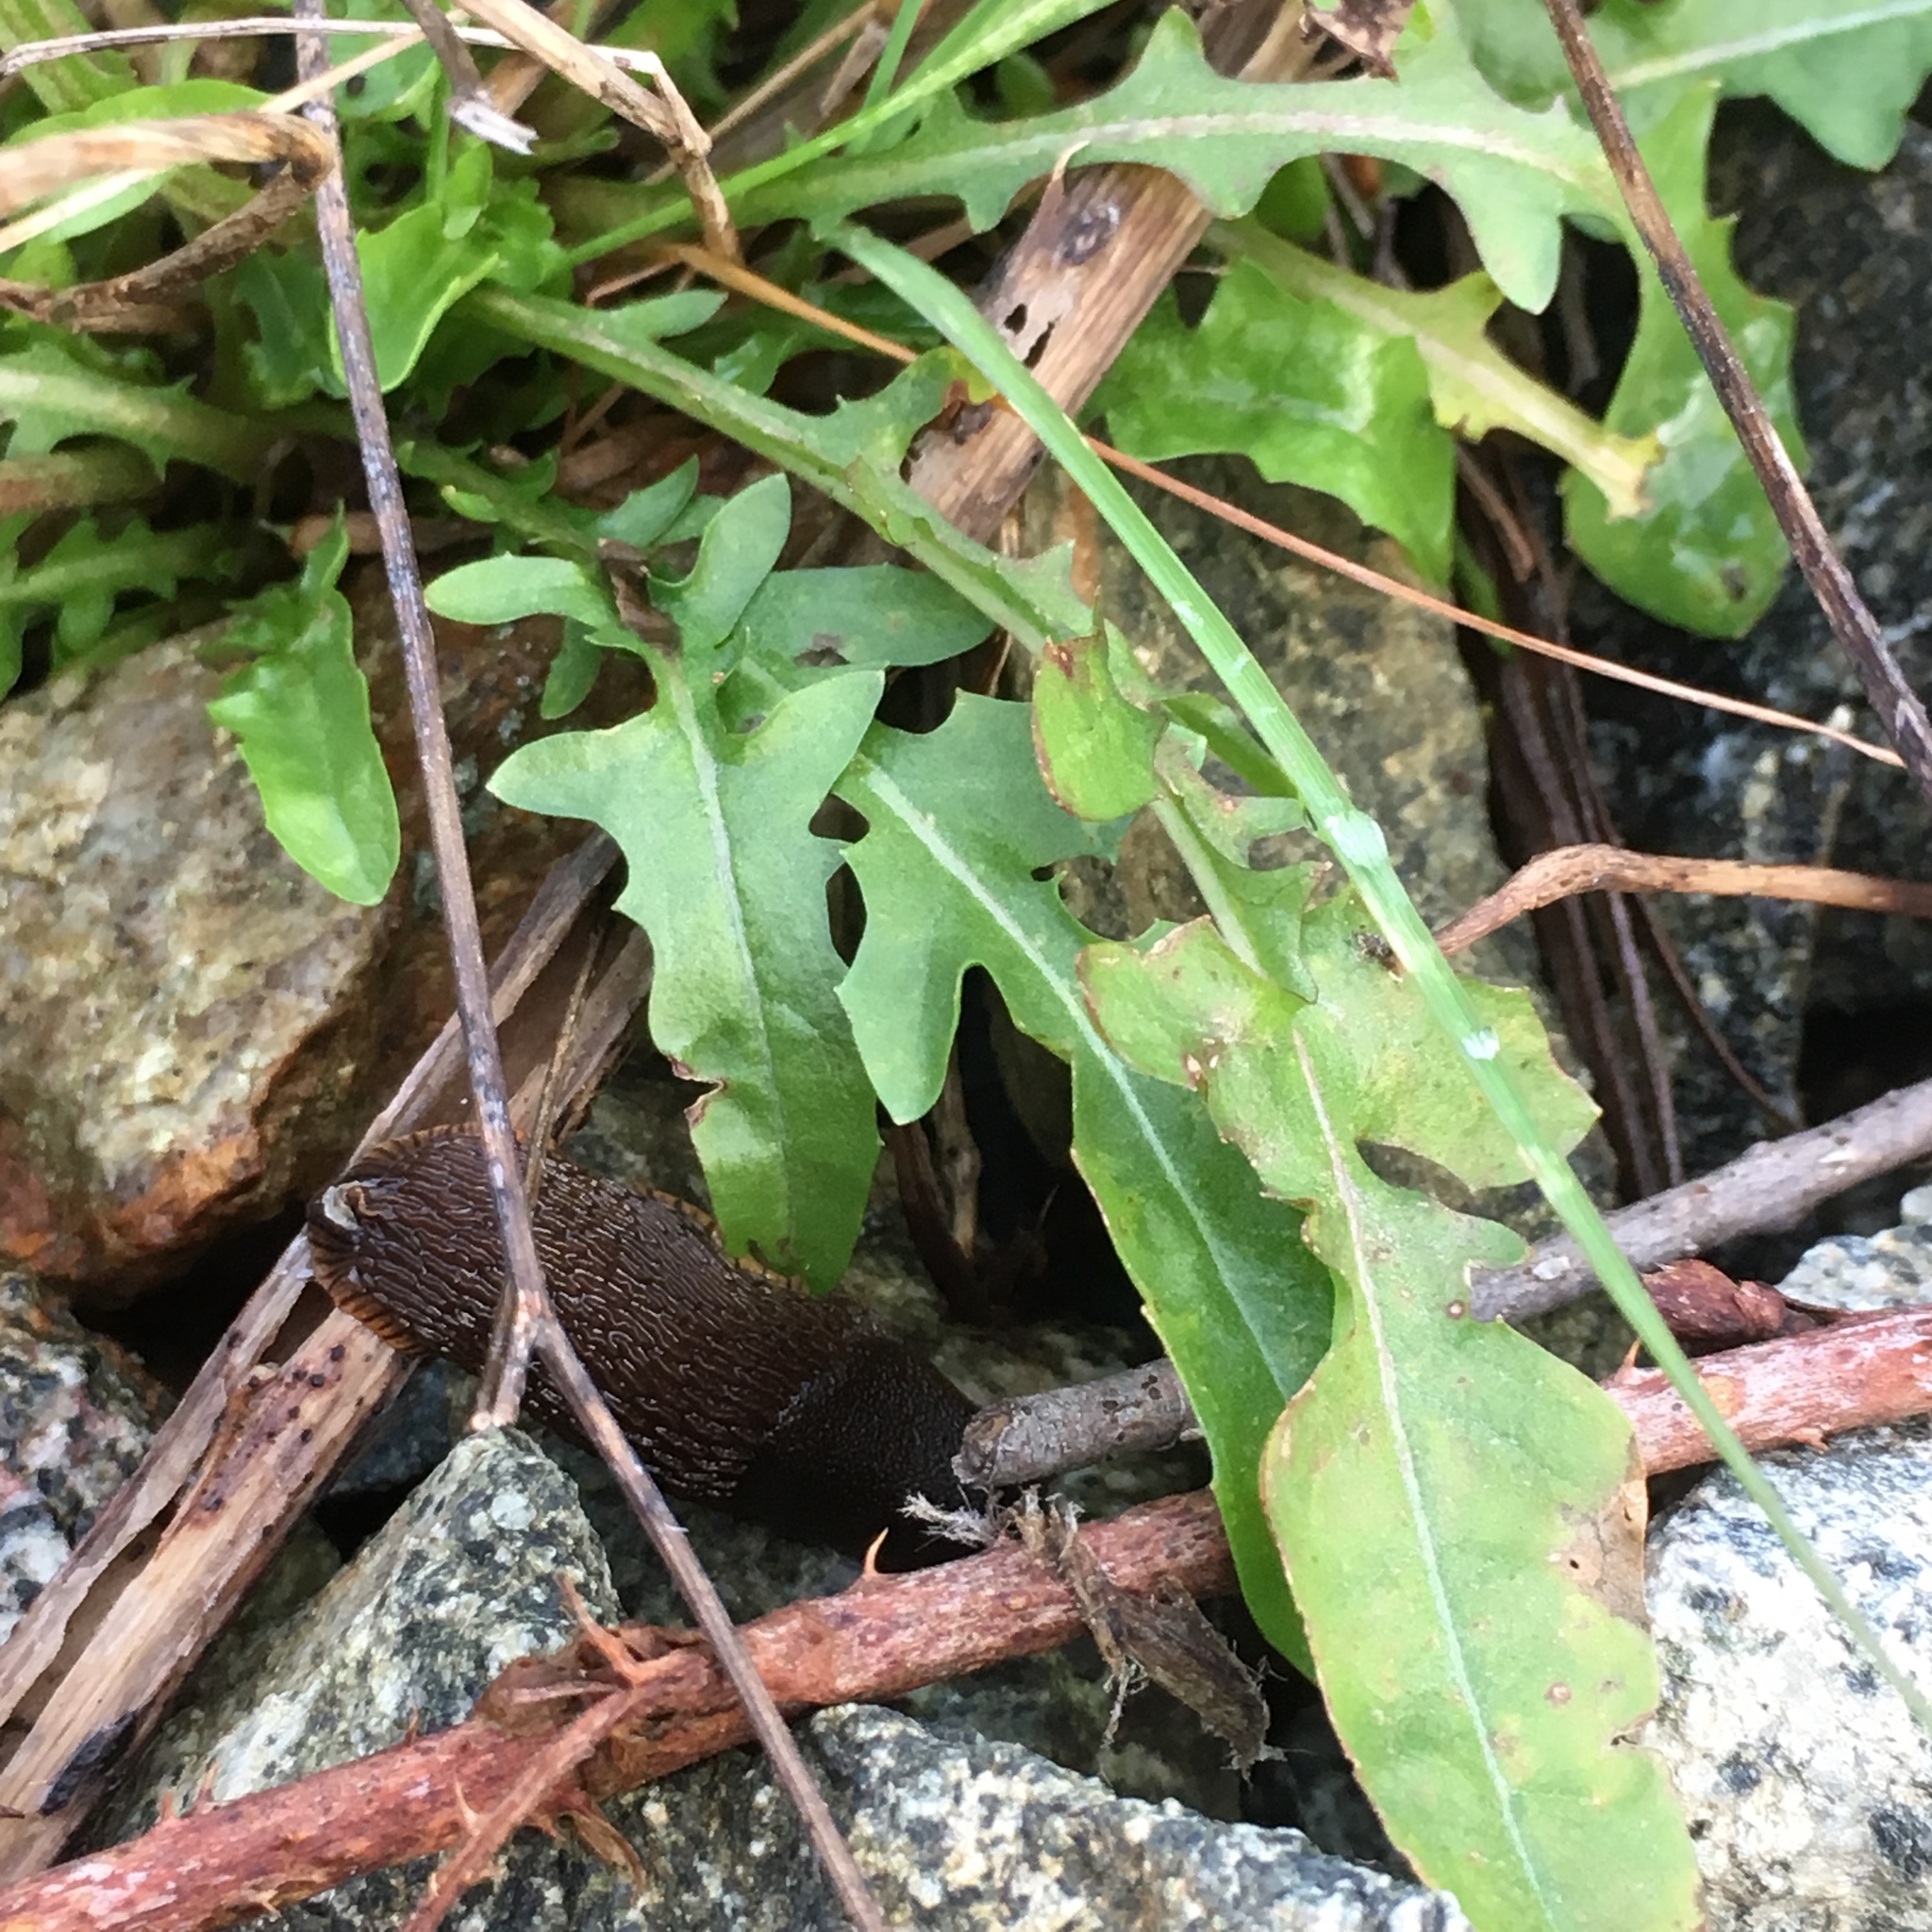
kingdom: Plantae
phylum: Tracheophyta
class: Magnoliopsida
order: Asterales
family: Asteraceae
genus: Crepis
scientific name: Crepis capillaris
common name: Smooth hawksbeard
